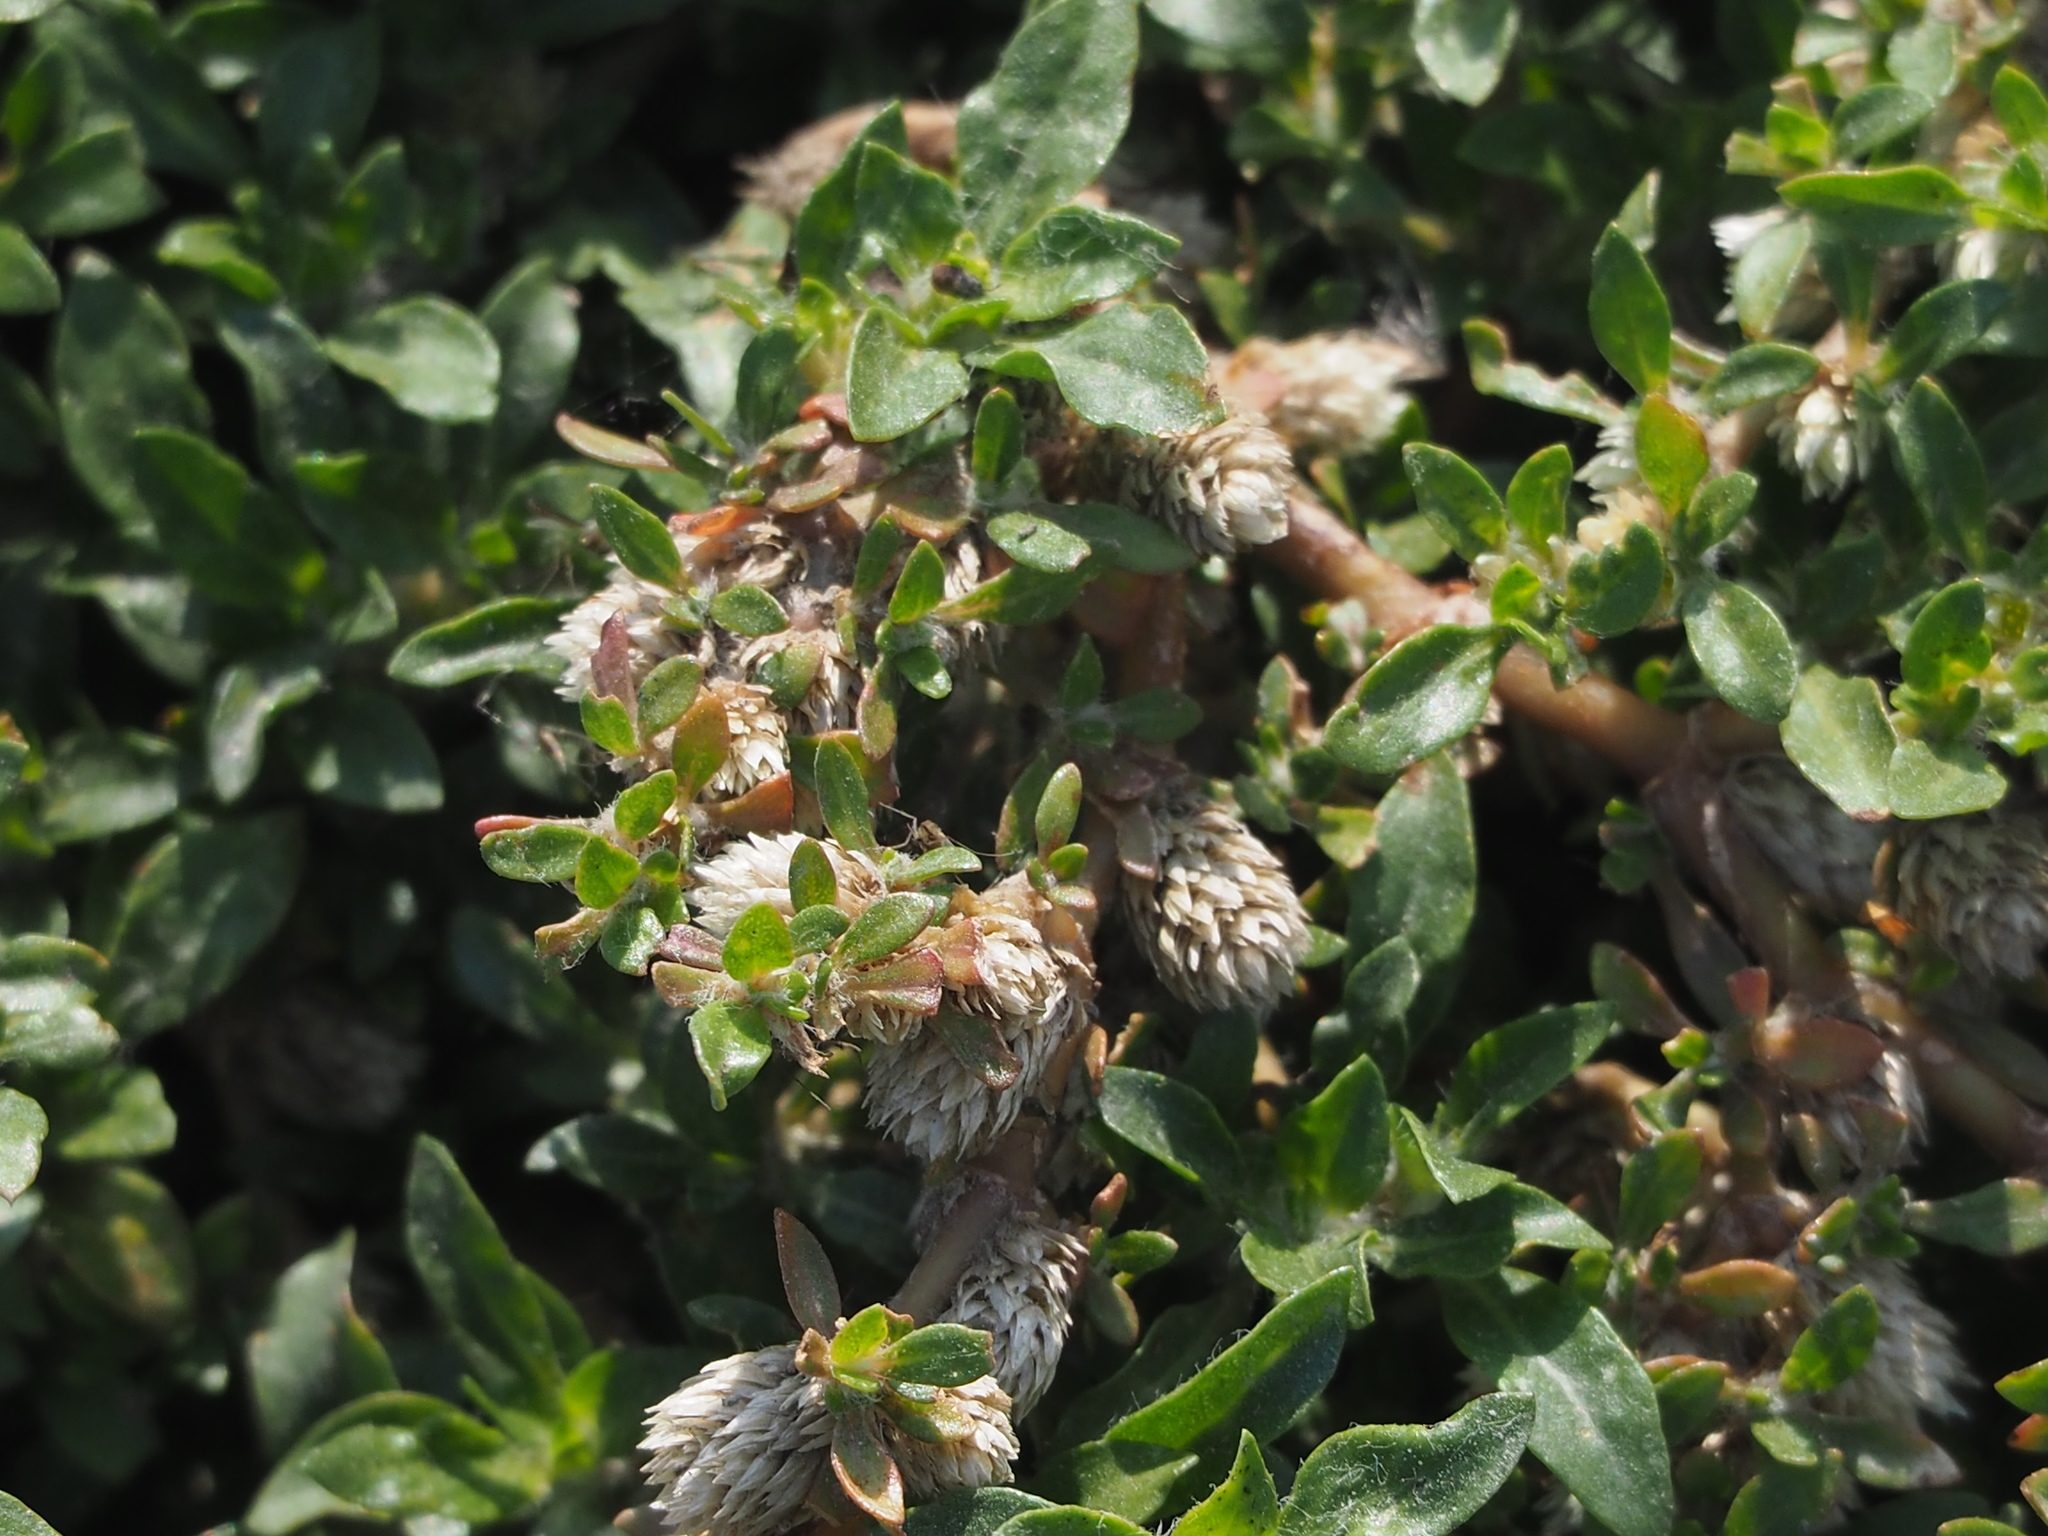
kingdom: Plantae
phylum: Tracheophyta
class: Magnoliopsida
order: Caryophyllales
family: Amaranthaceae
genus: Alternanthera
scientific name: Alternanthera paronychioides
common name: Smooth joyweed
